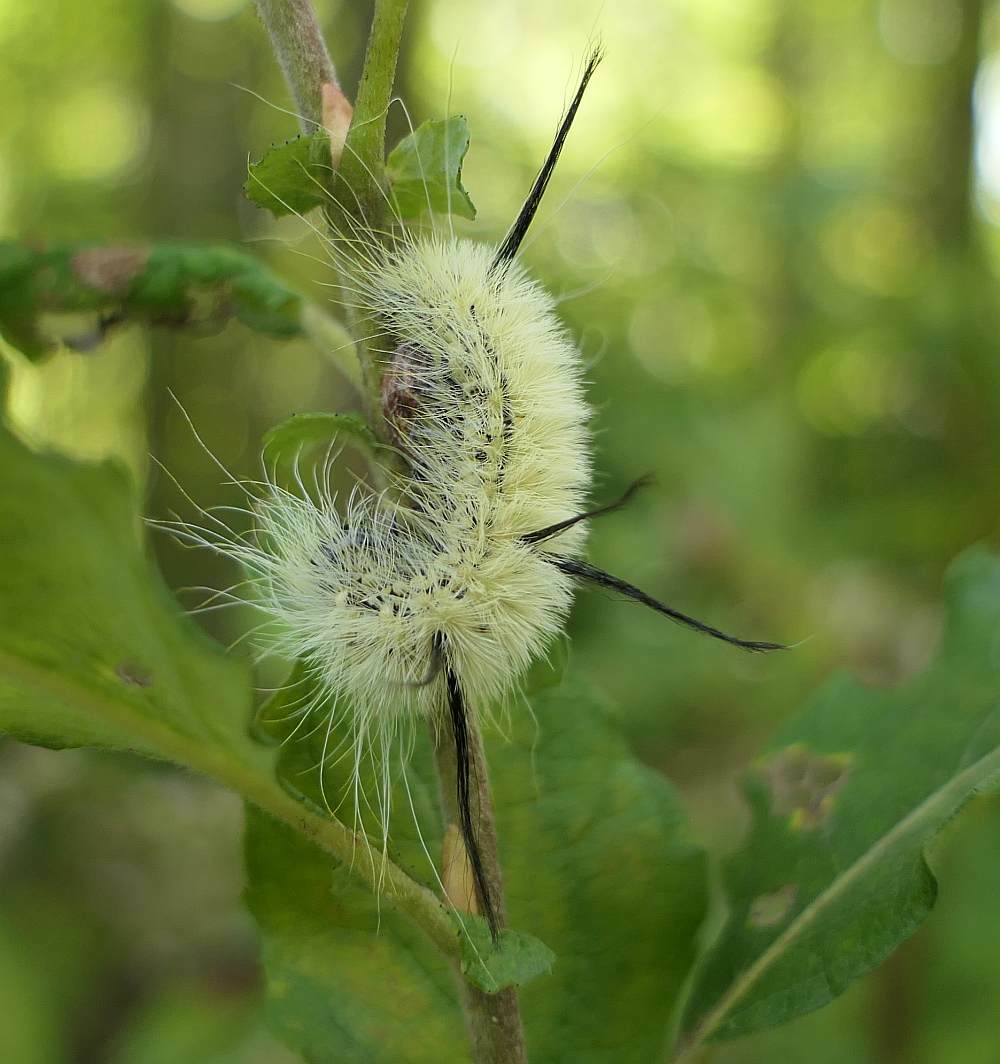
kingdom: Animalia
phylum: Arthropoda
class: Insecta
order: Lepidoptera
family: Noctuidae
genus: Acronicta
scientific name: Acronicta americana
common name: American dagger
